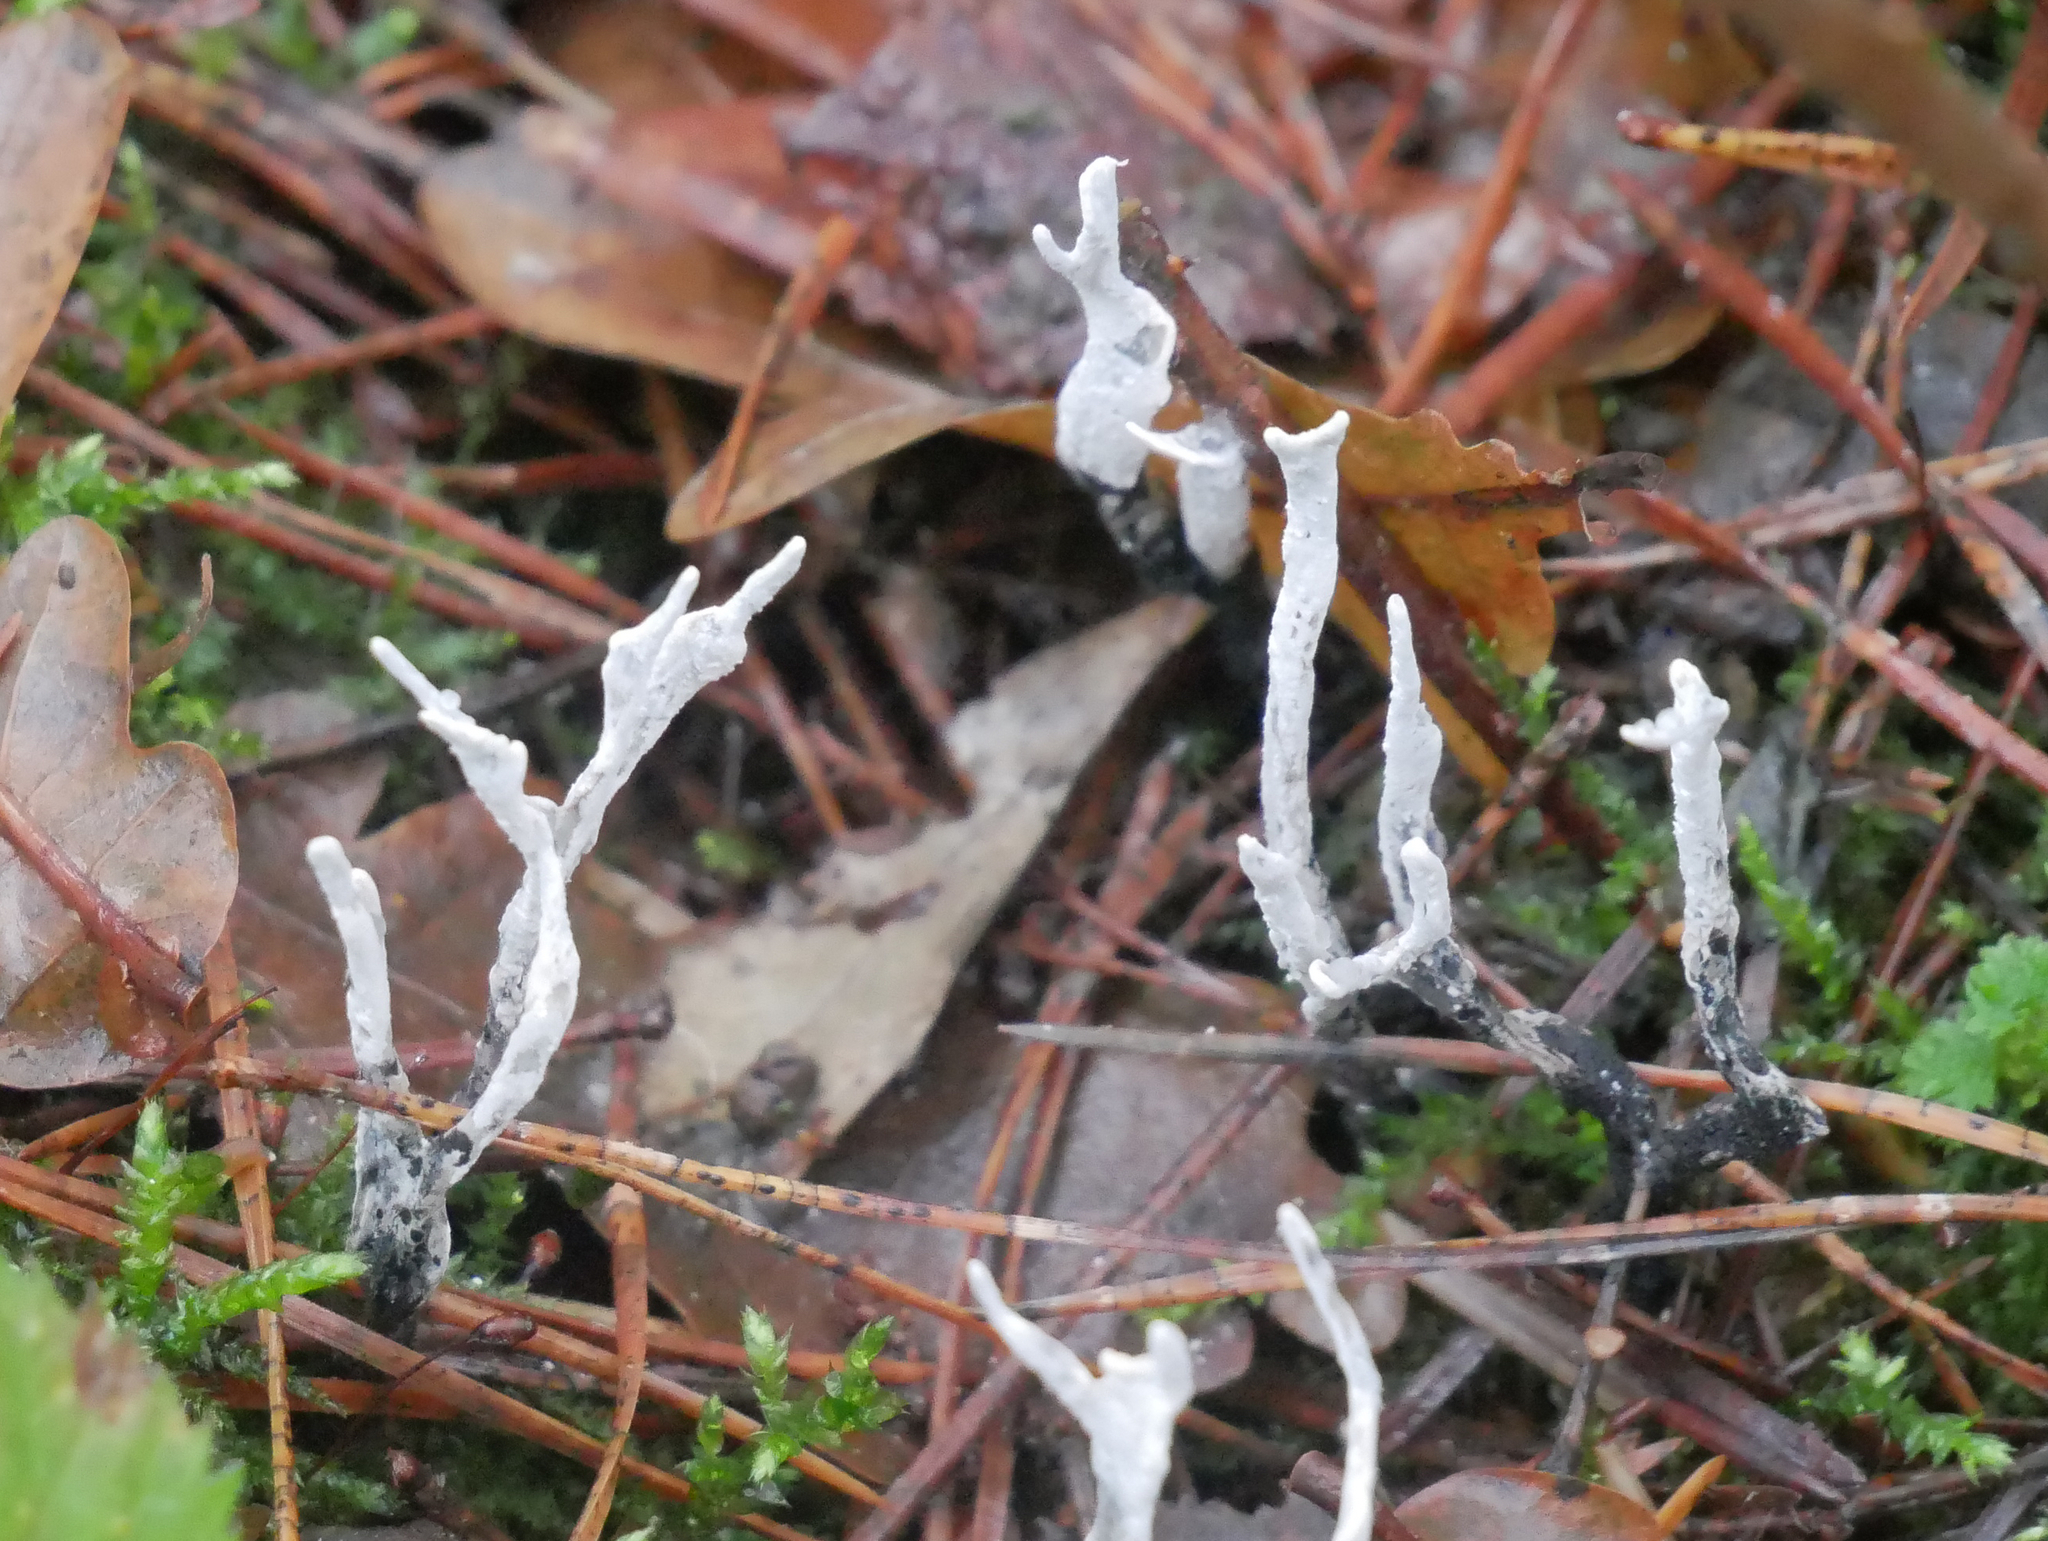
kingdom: Fungi
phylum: Ascomycota
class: Sordariomycetes
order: Xylariales
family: Xylariaceae
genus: Xylaria
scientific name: Xylaria hypoxylon
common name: Candle-snuff fungus
